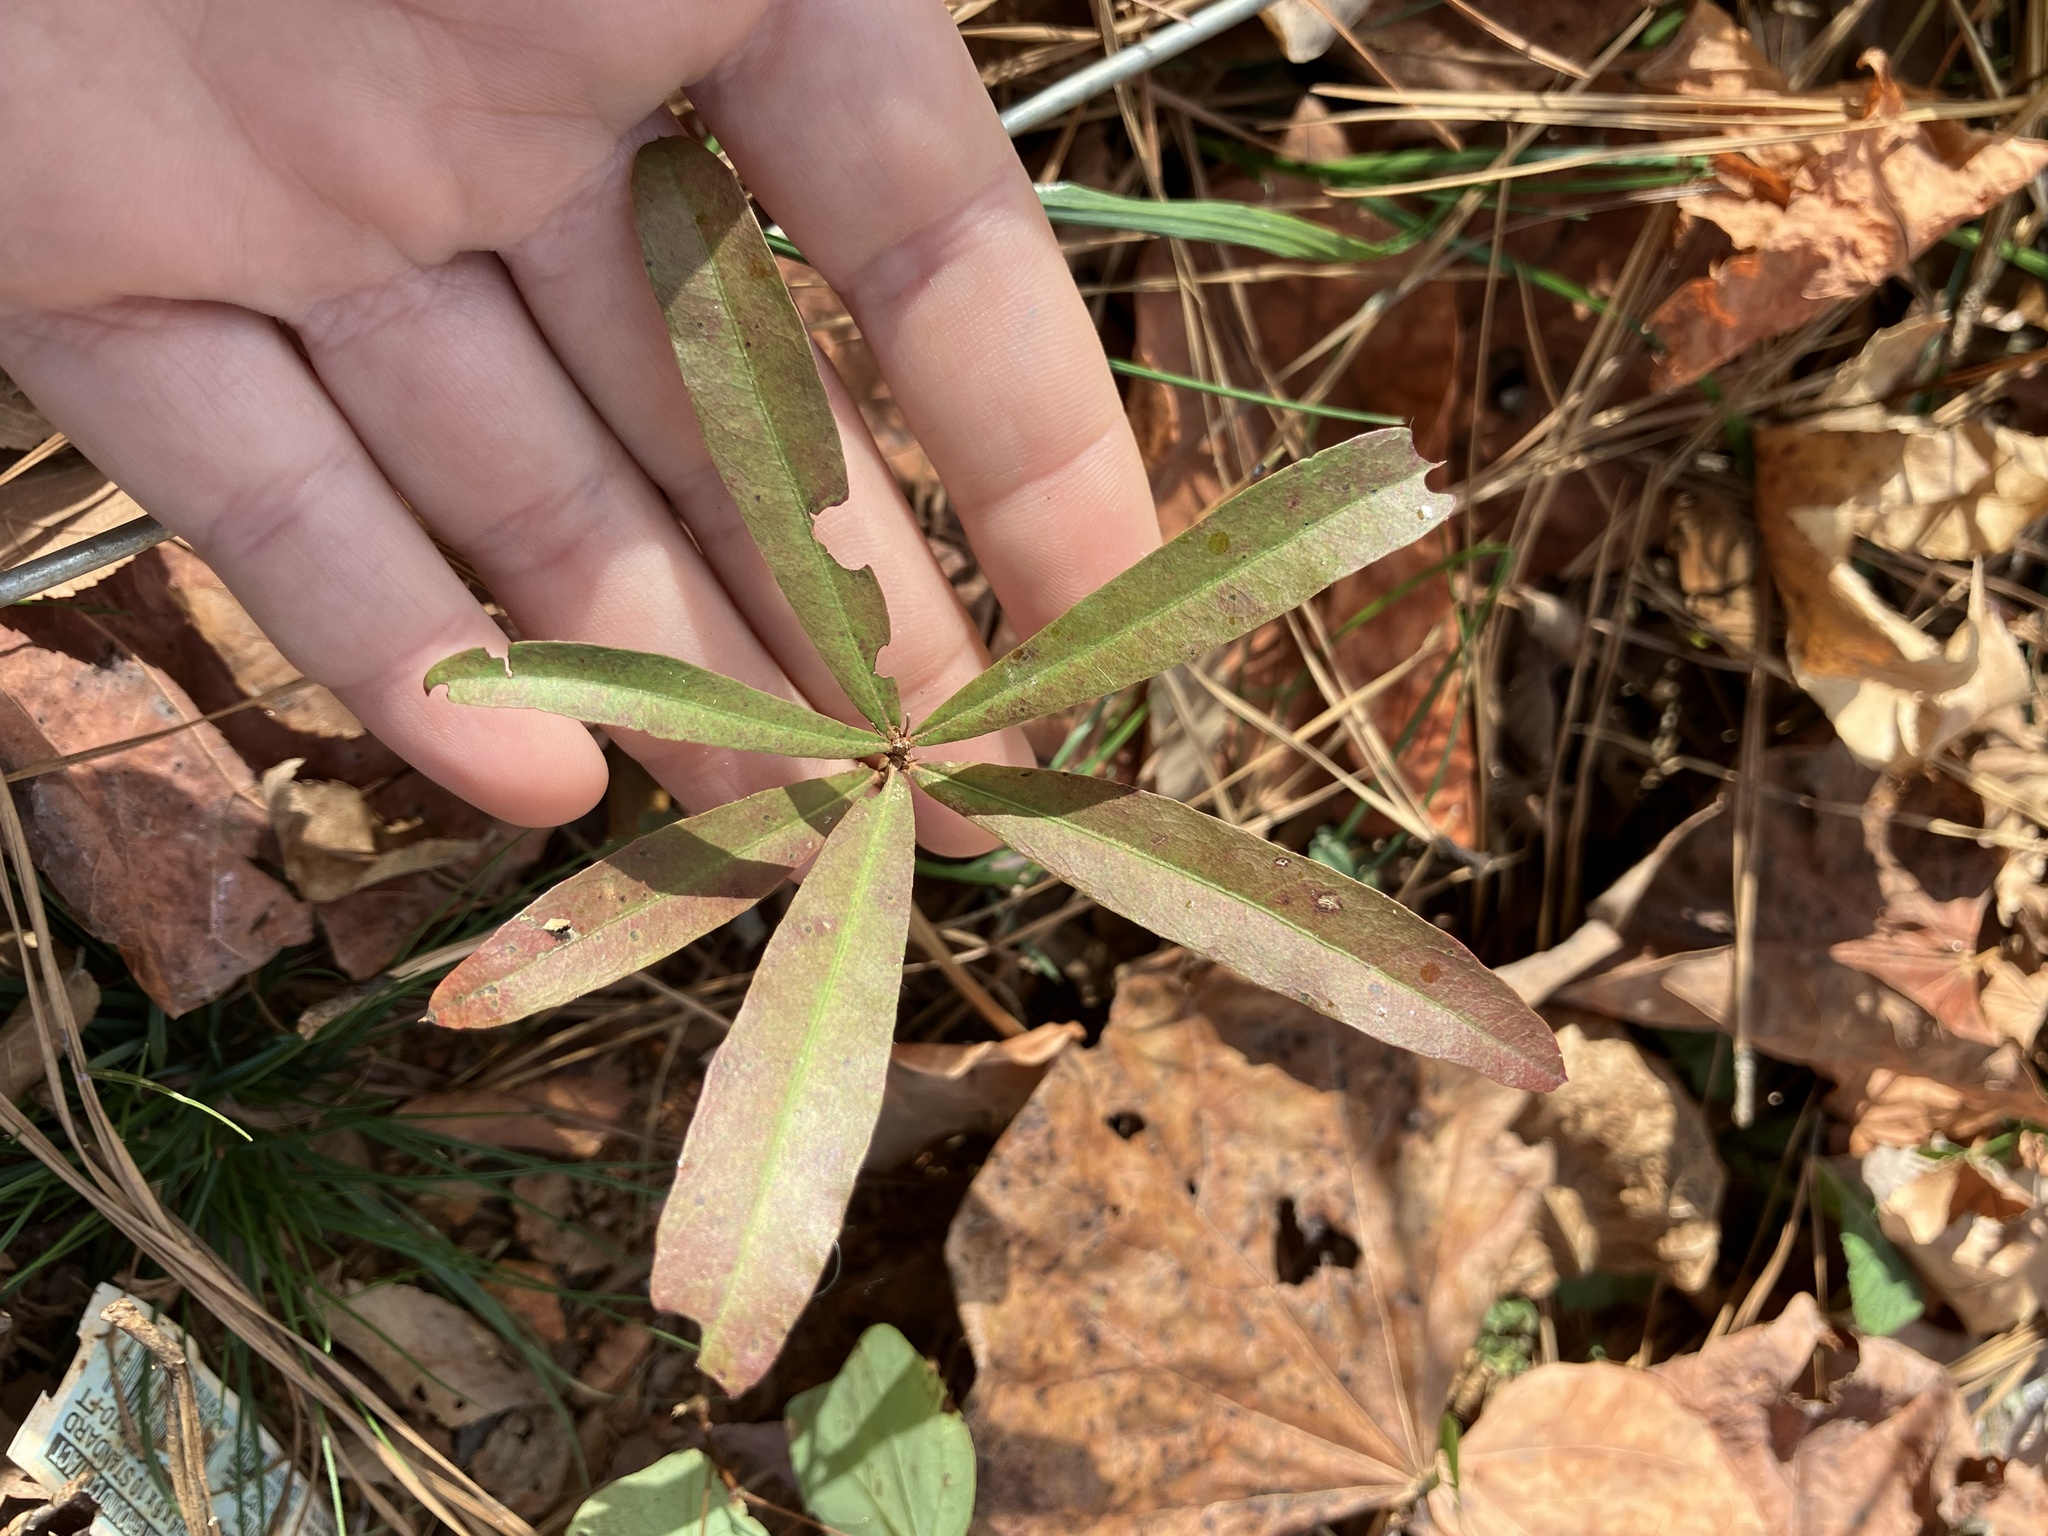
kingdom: Plantae
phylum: Tracheophyta
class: Magnoliopsida
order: Fagales
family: Fagaceae
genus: Quercus
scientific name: Quercus phellos
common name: Willow oak
